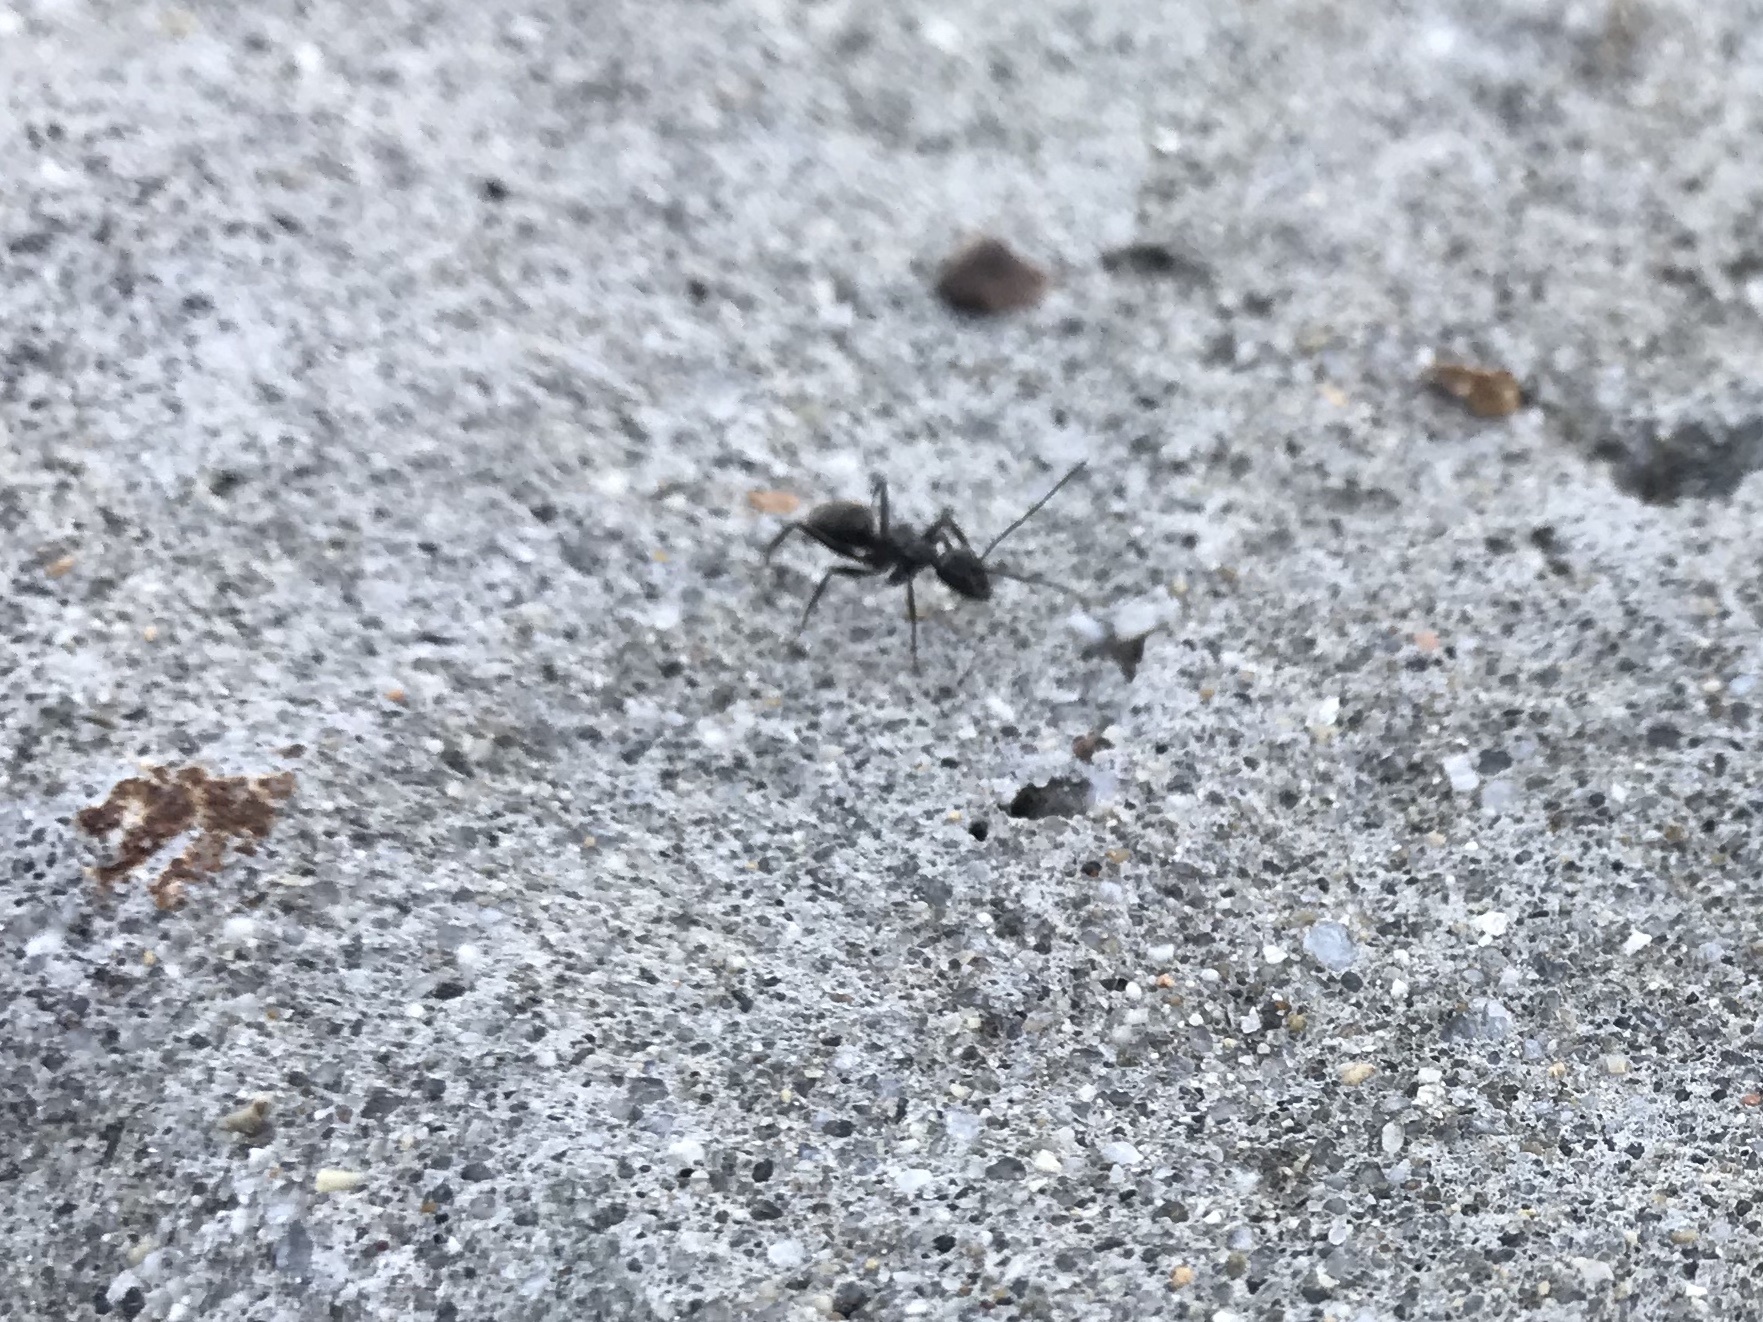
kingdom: Animalia
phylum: Arthropoda
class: Insecta
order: Hymenoptera
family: Formicidae
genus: Camponotus
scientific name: Camponotus pennsylvanicus
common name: Black carpenter ant
